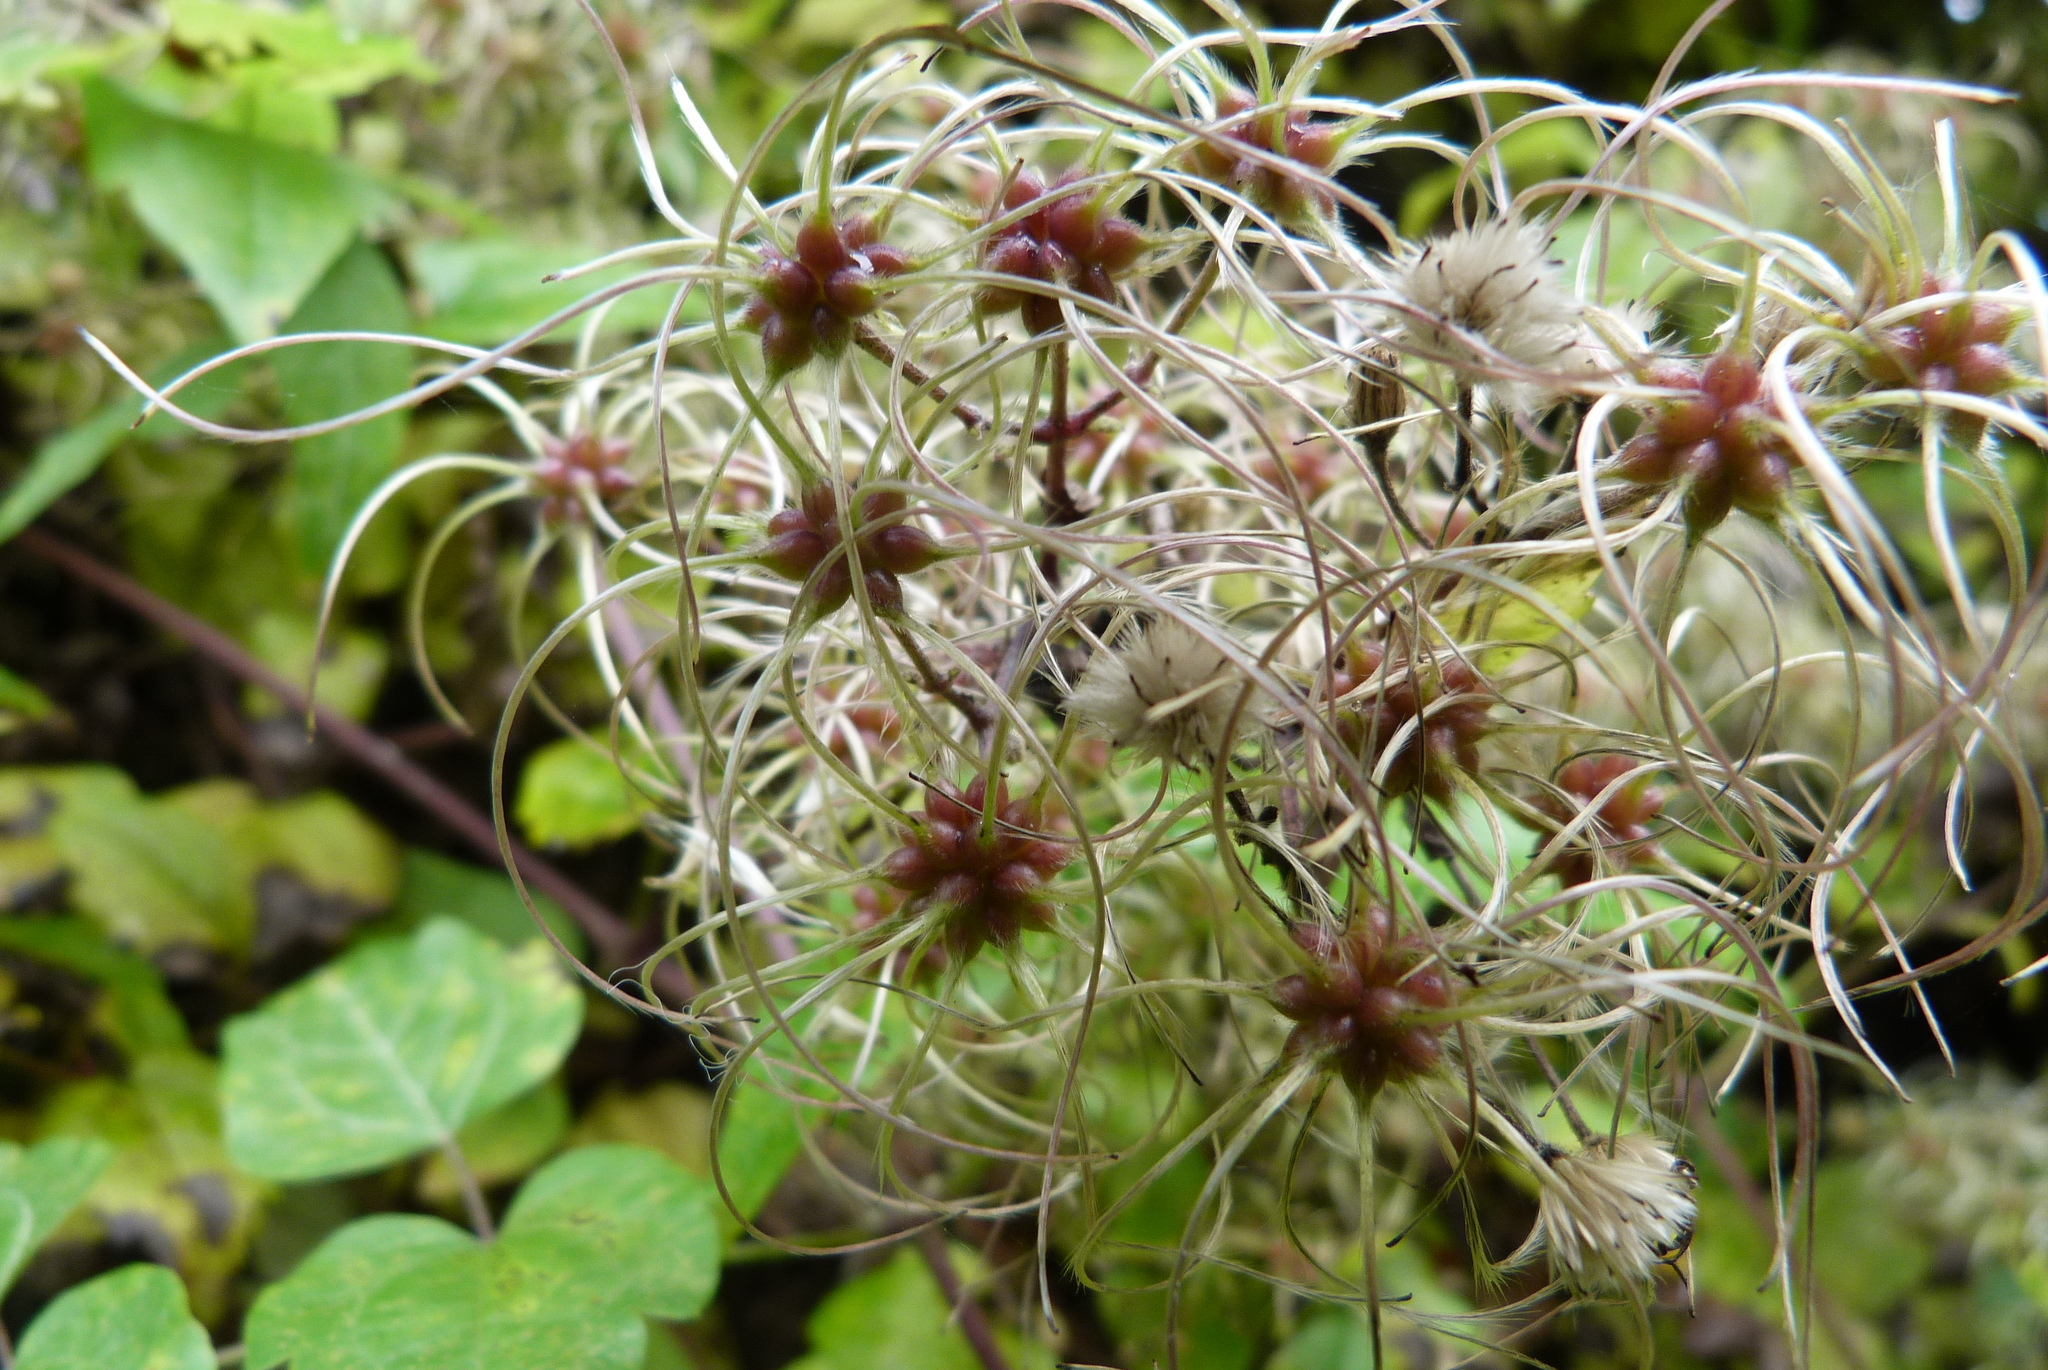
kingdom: Plantae
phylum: Tracheophyta
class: Magnoliopsida
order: Ranunculales
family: Ranunculaceae
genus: Clematis
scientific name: Clematis vitalba
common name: Evergreen clematis
